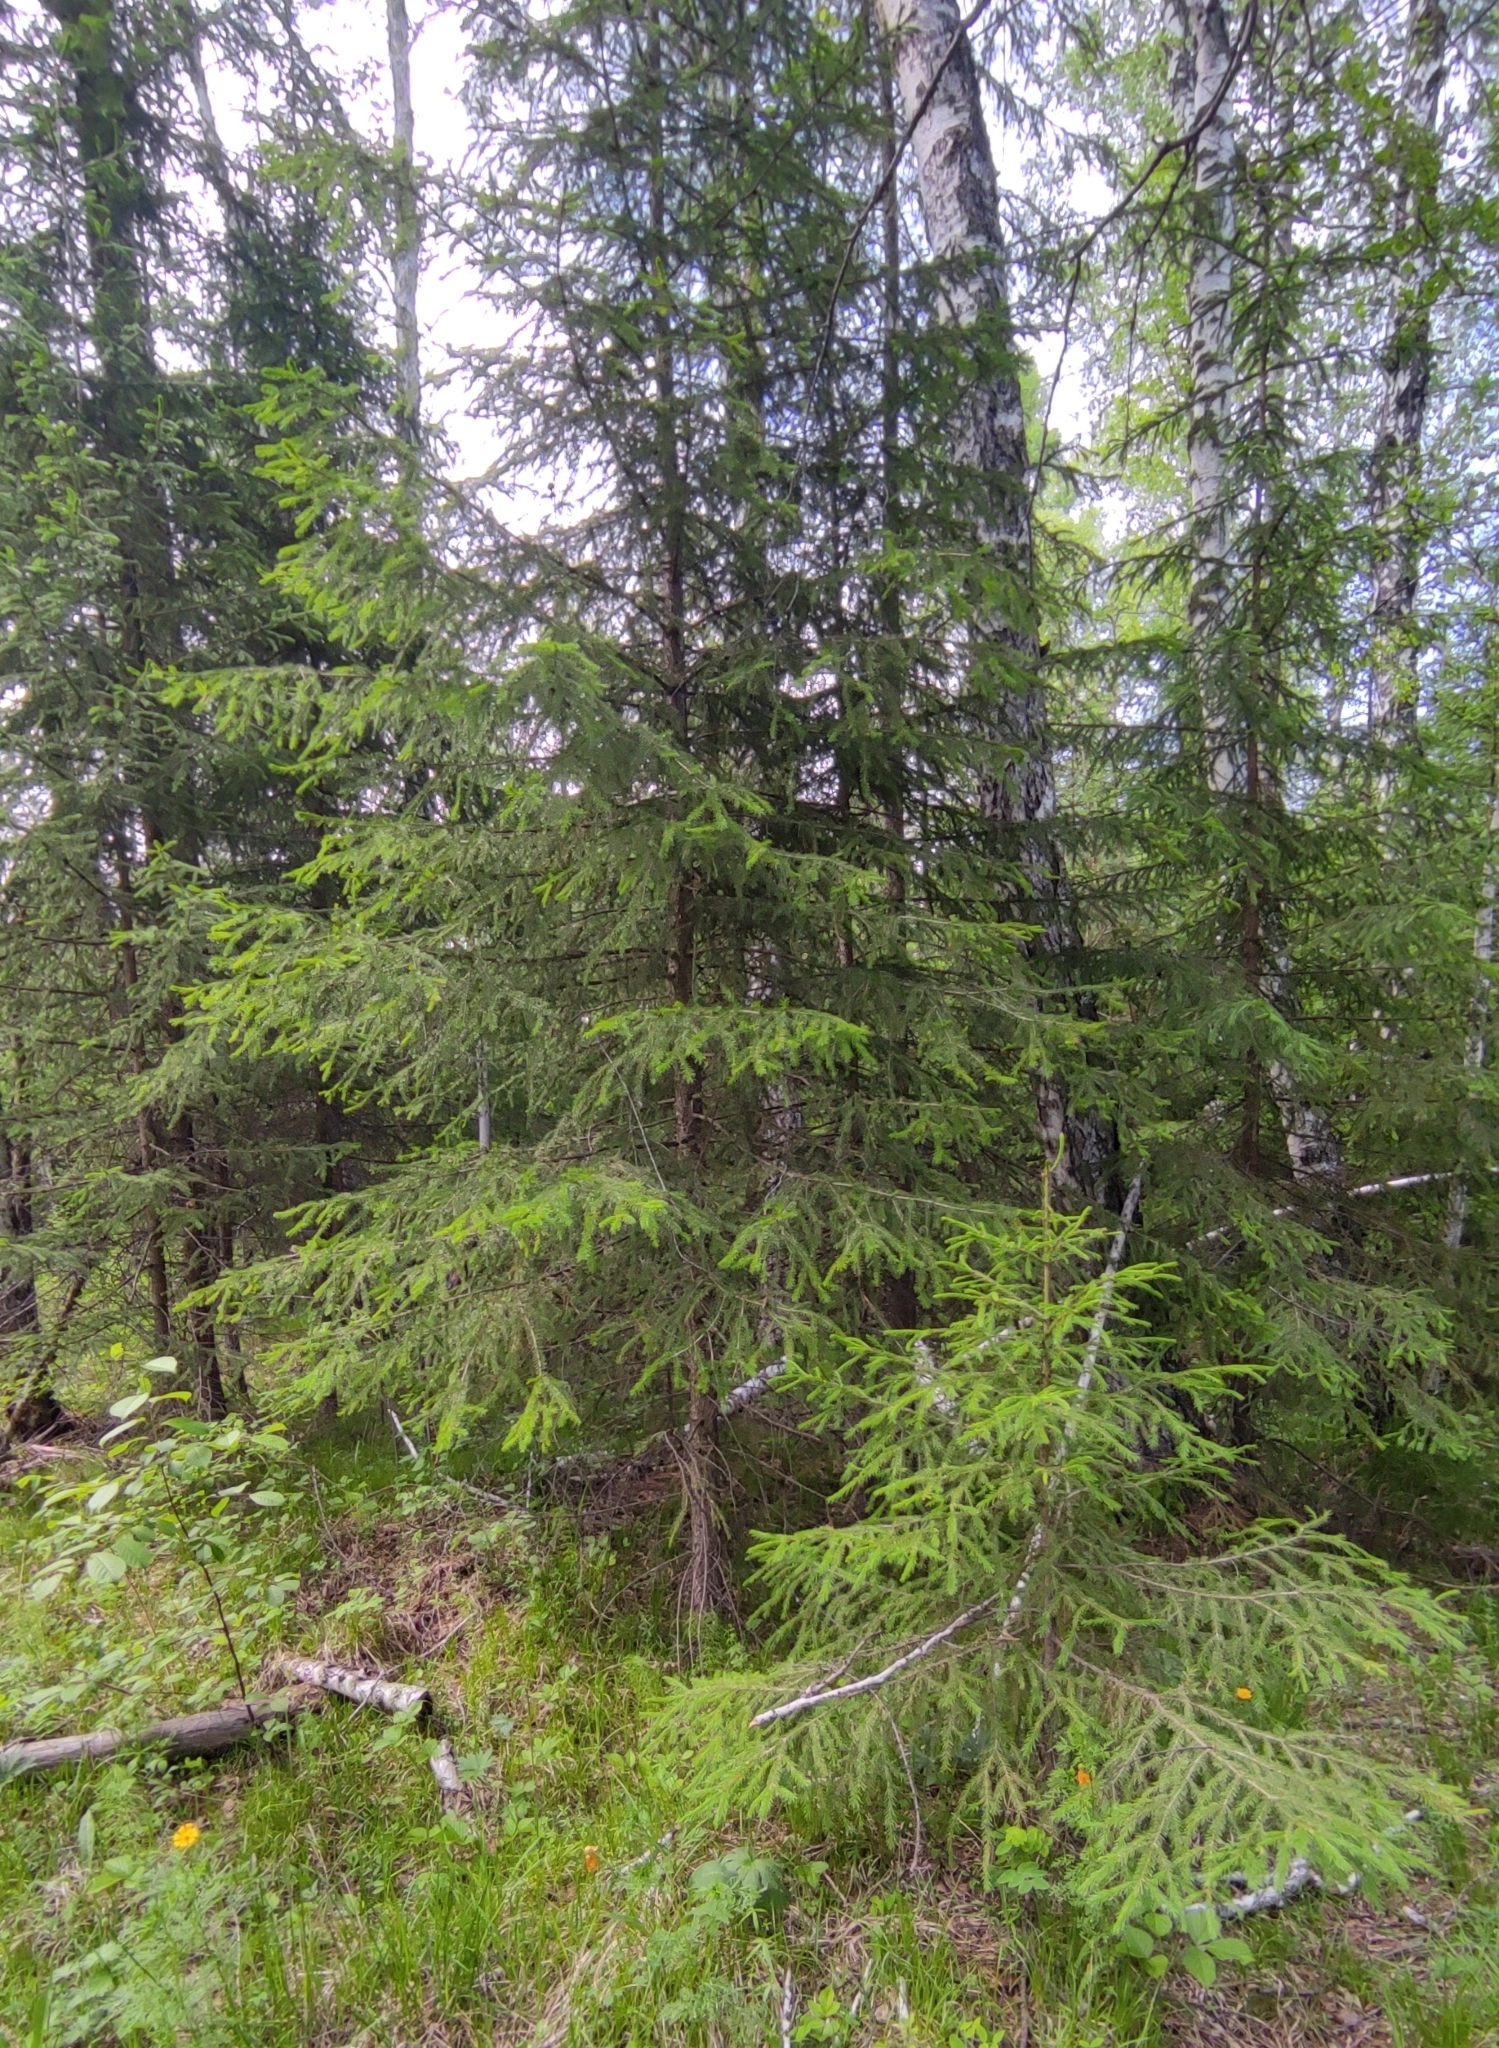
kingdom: Plantae
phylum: Tracheophyta
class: Pinopsida
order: Pinales
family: Pinaceae
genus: Picea
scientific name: Picea obovata
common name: Siberian spruce
